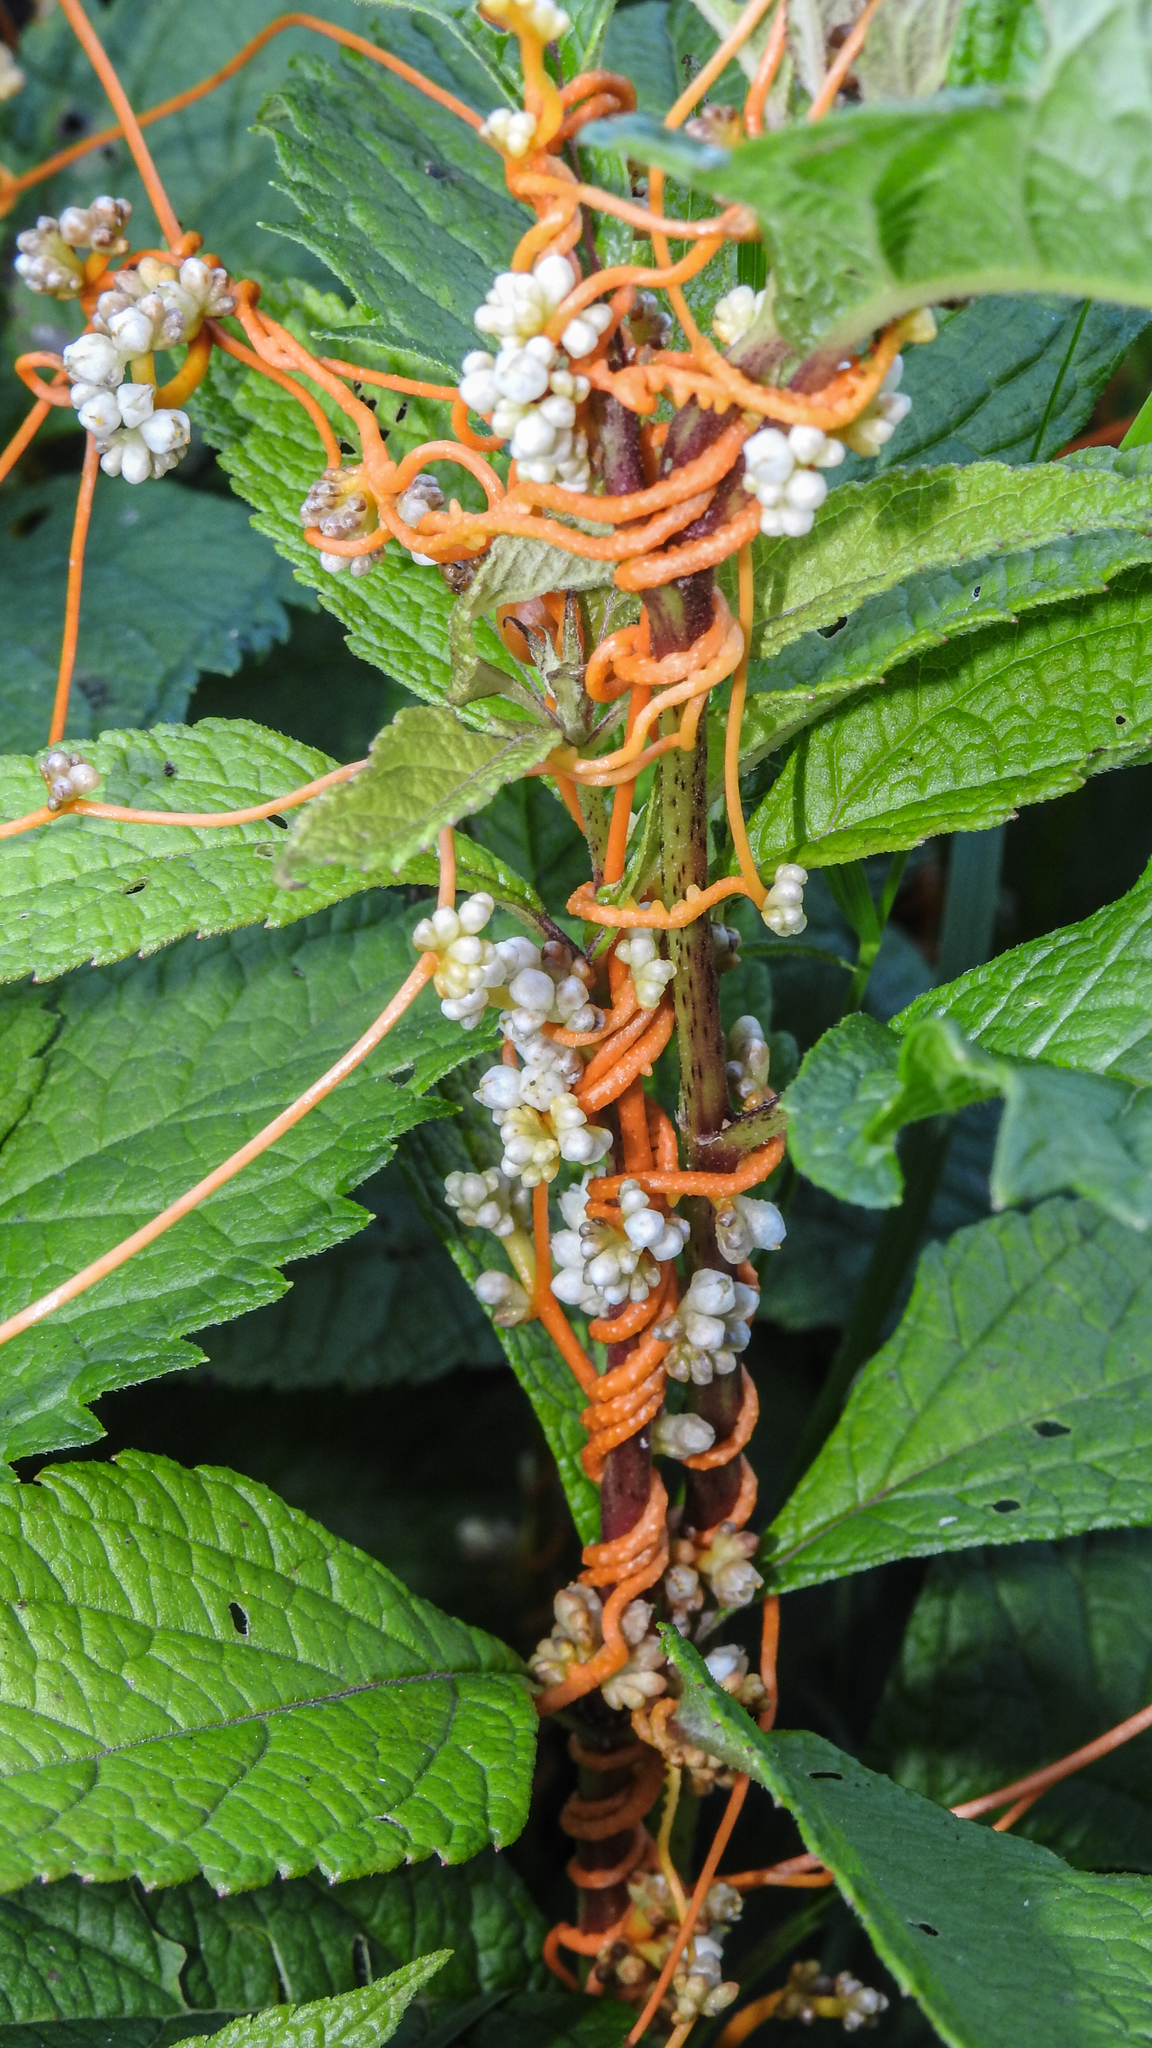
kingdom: Plantae
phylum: Tracheophyta
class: Magnoliopsida
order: Solanales
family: Convolvulaceae
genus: Cuscuta
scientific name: Cuscuta gronovii
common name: Common dodder
